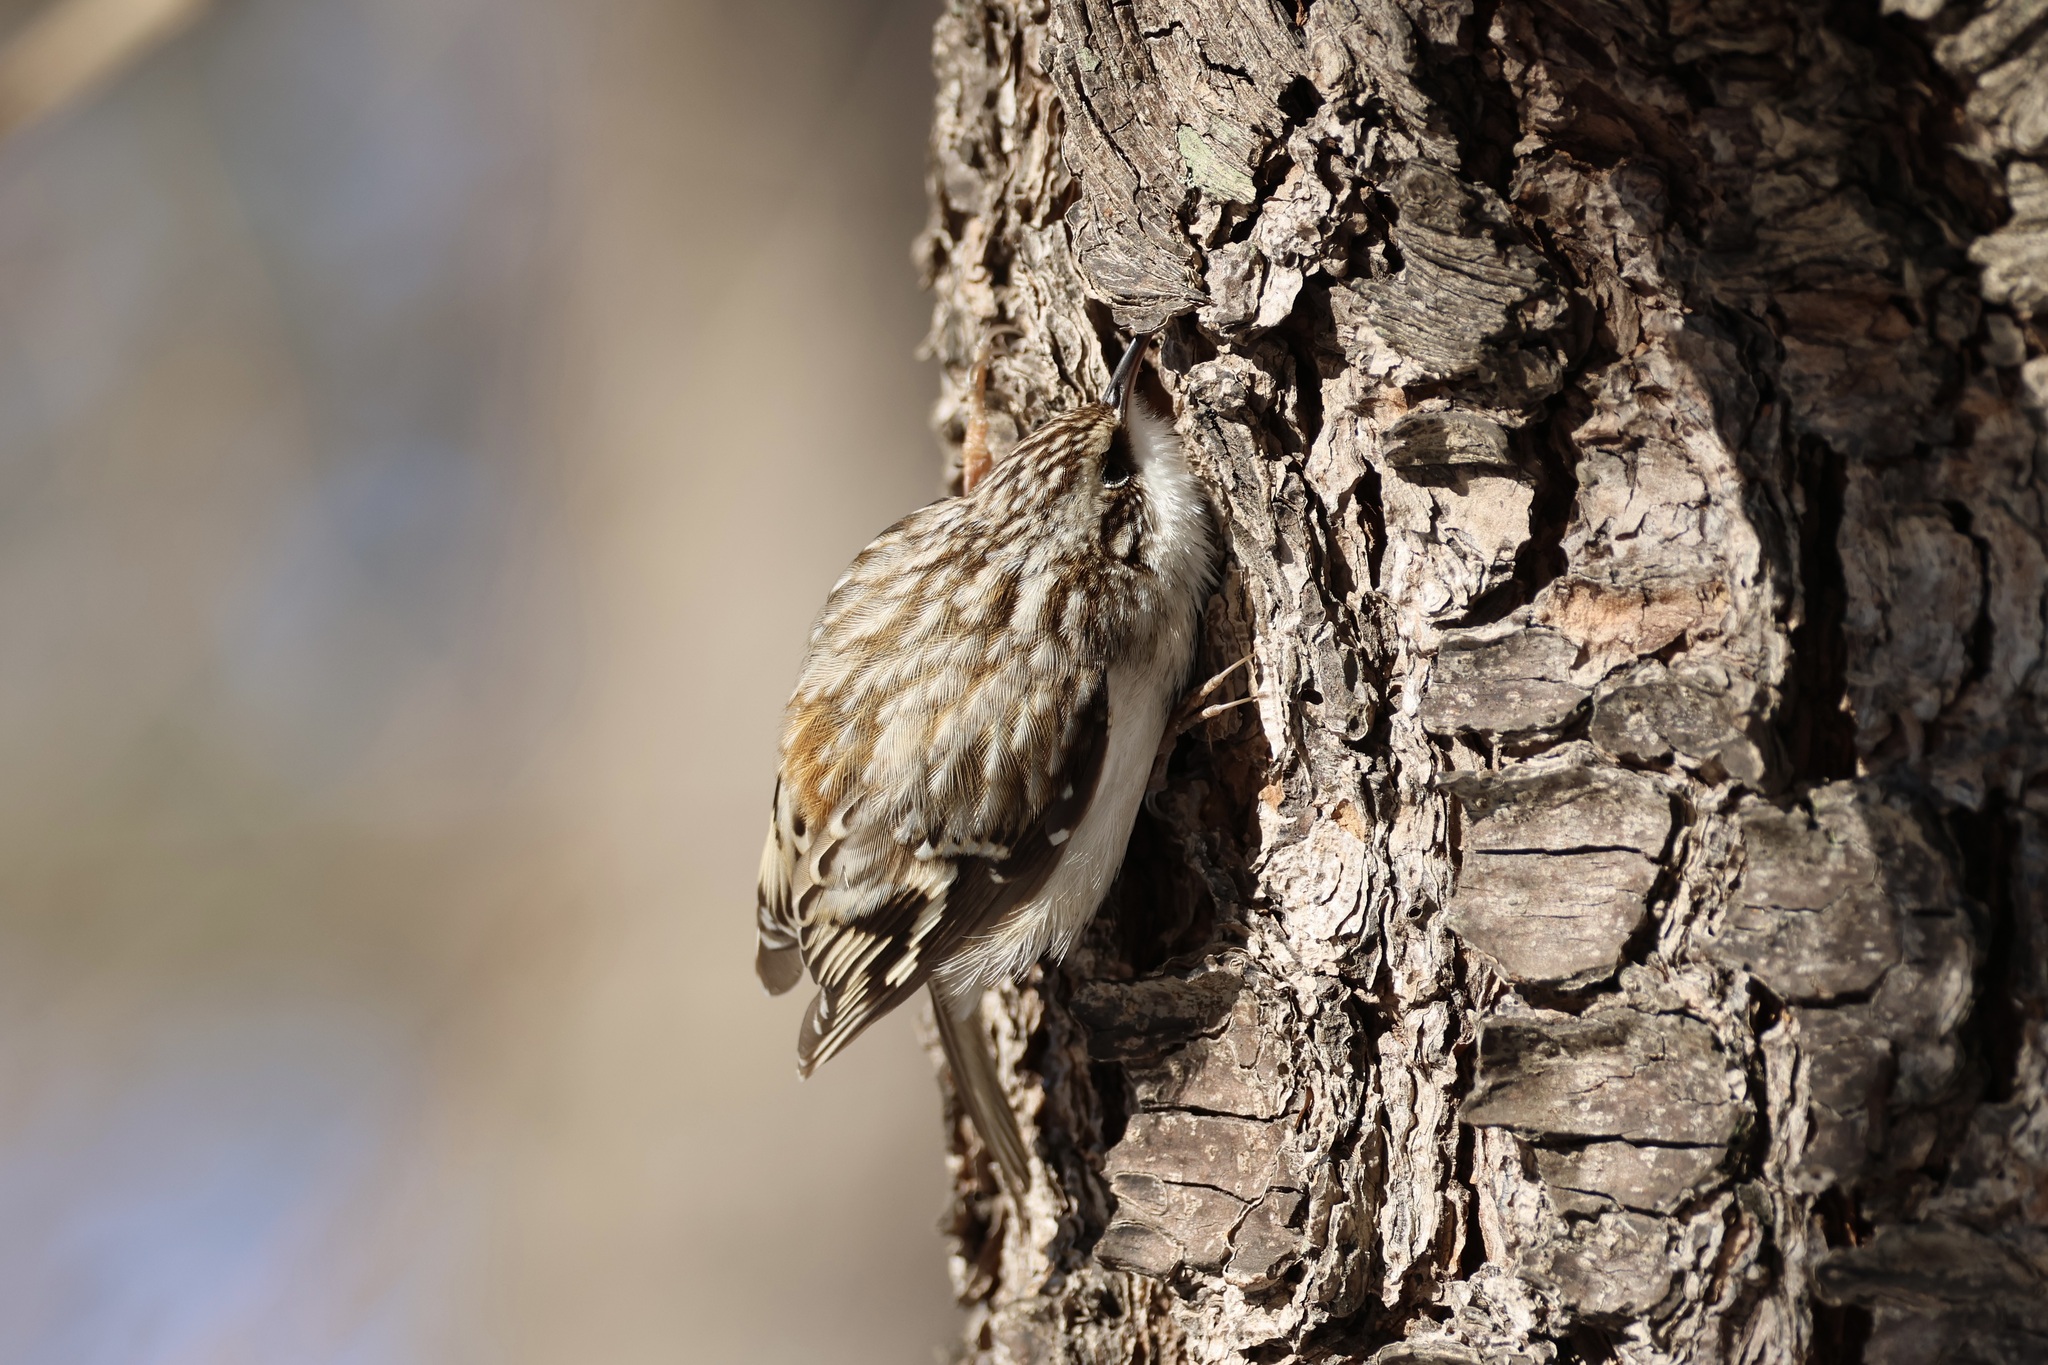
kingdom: Animalia
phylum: Chordata
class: Aves
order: Passeriformes
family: Certhiidae
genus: Certhia
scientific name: Certhia americana
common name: Brown creeper
